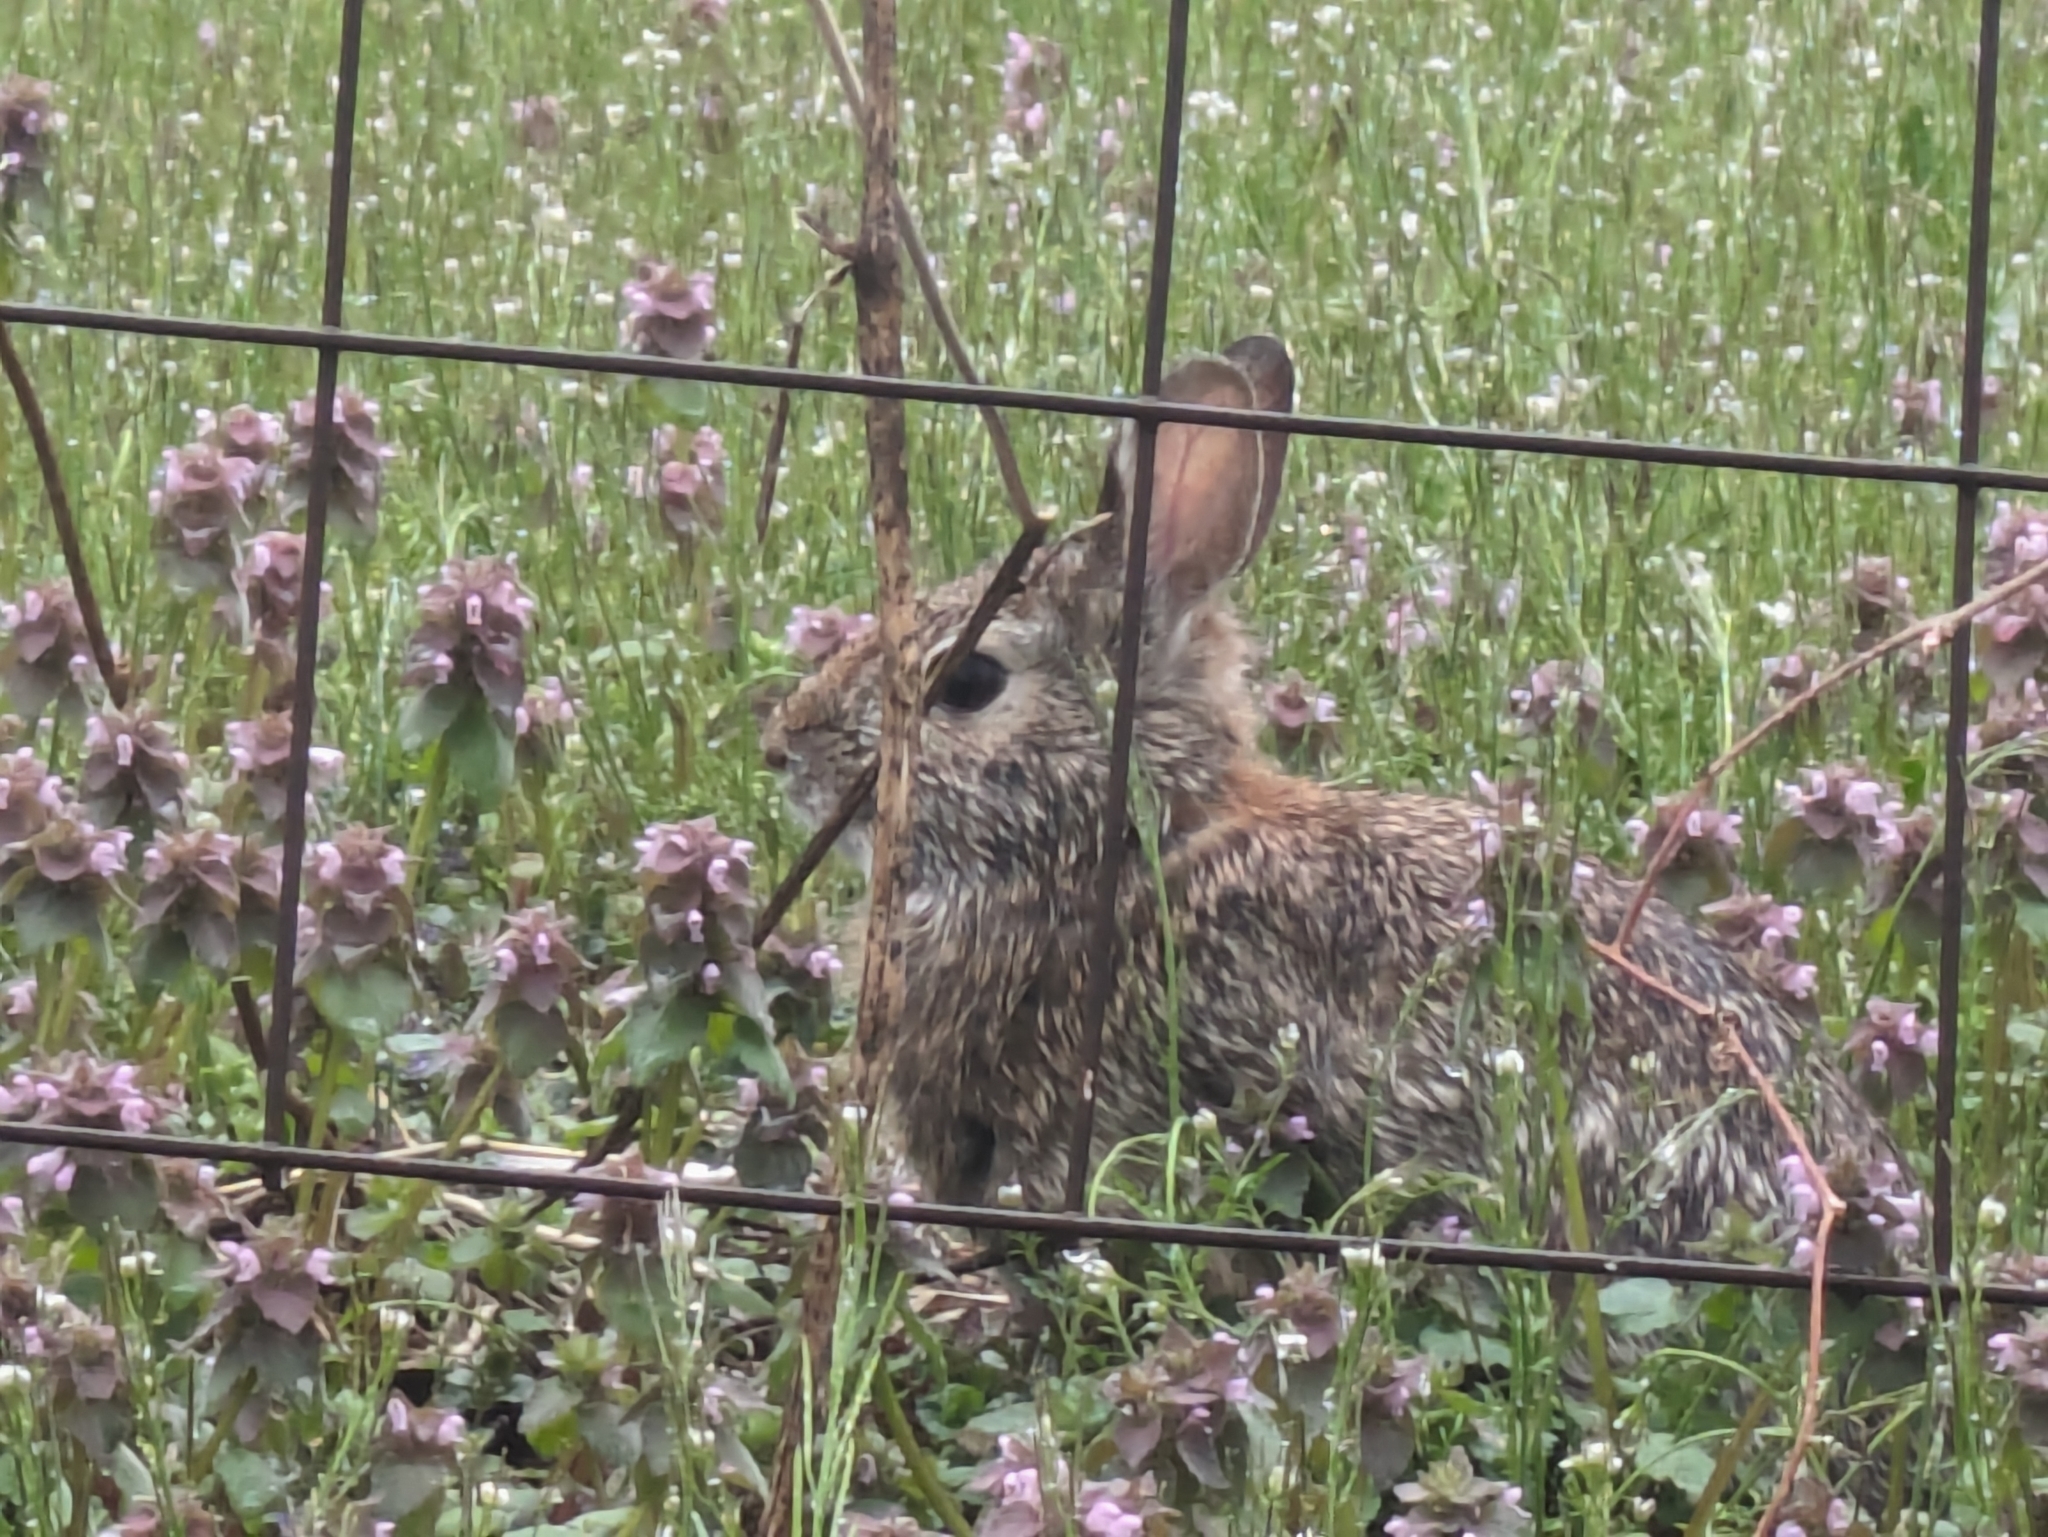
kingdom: Animalia
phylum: Chordata
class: Mammalia
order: Lagomorpha
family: Leporidae
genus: Sylvilagus
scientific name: Sylvilagus floridanus
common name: Eastern cottontail
